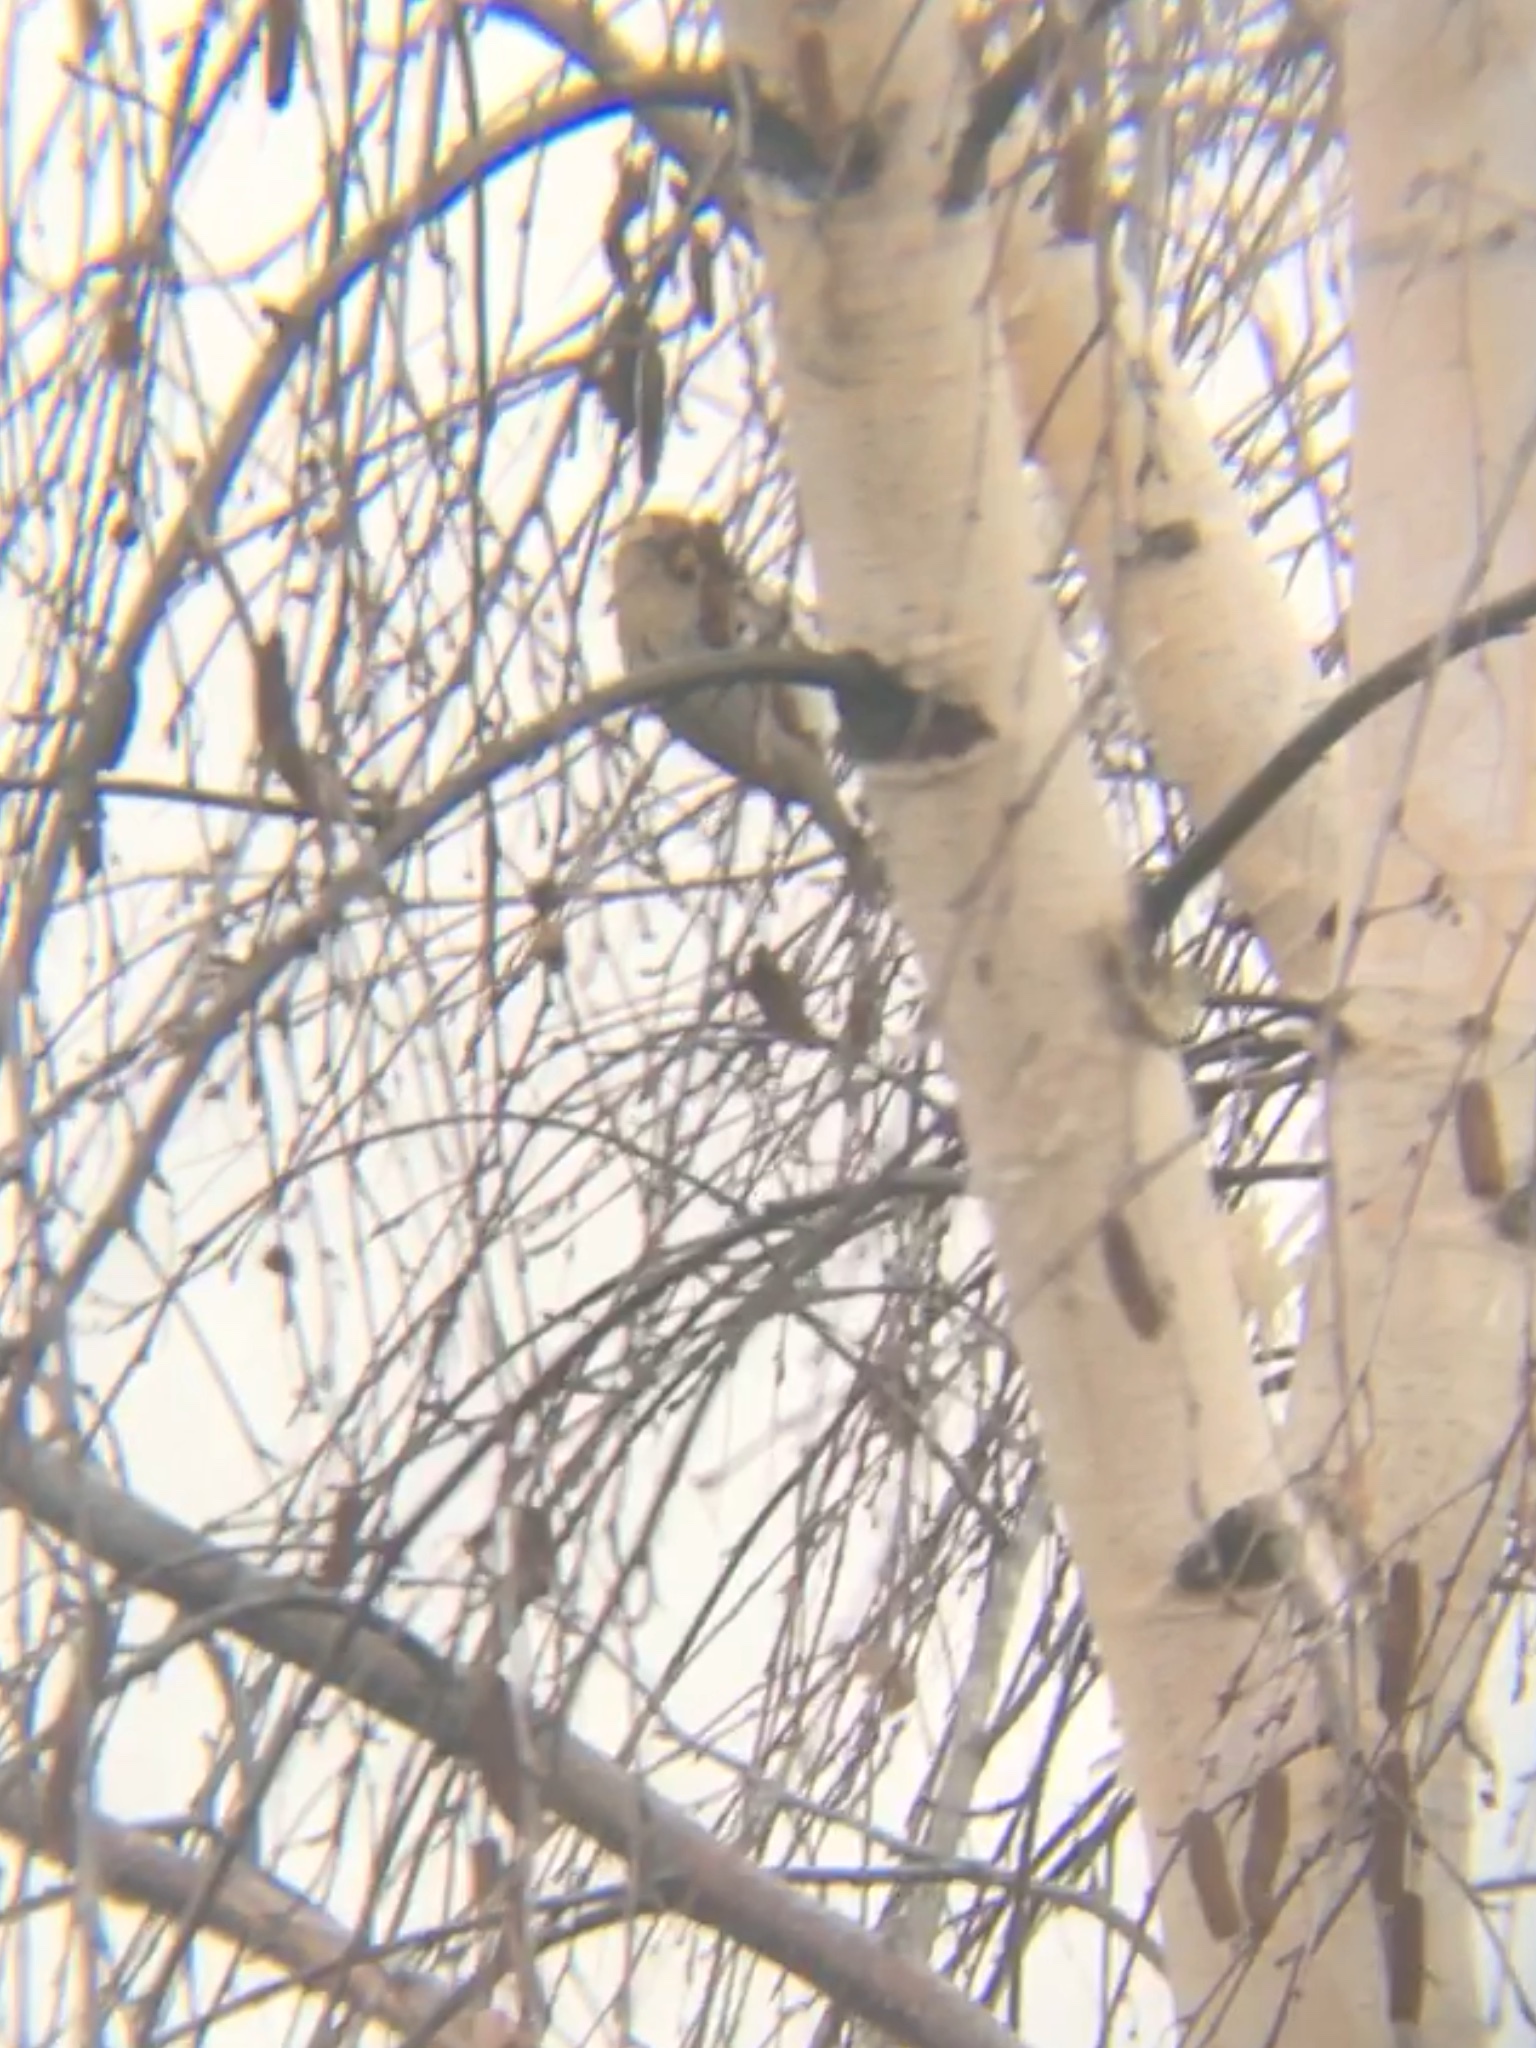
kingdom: Animalia
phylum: Chordata
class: Aves
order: Passeriformes
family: Fringillidae
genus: Acanthis
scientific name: Acanthis flammea
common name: Common redpoll
